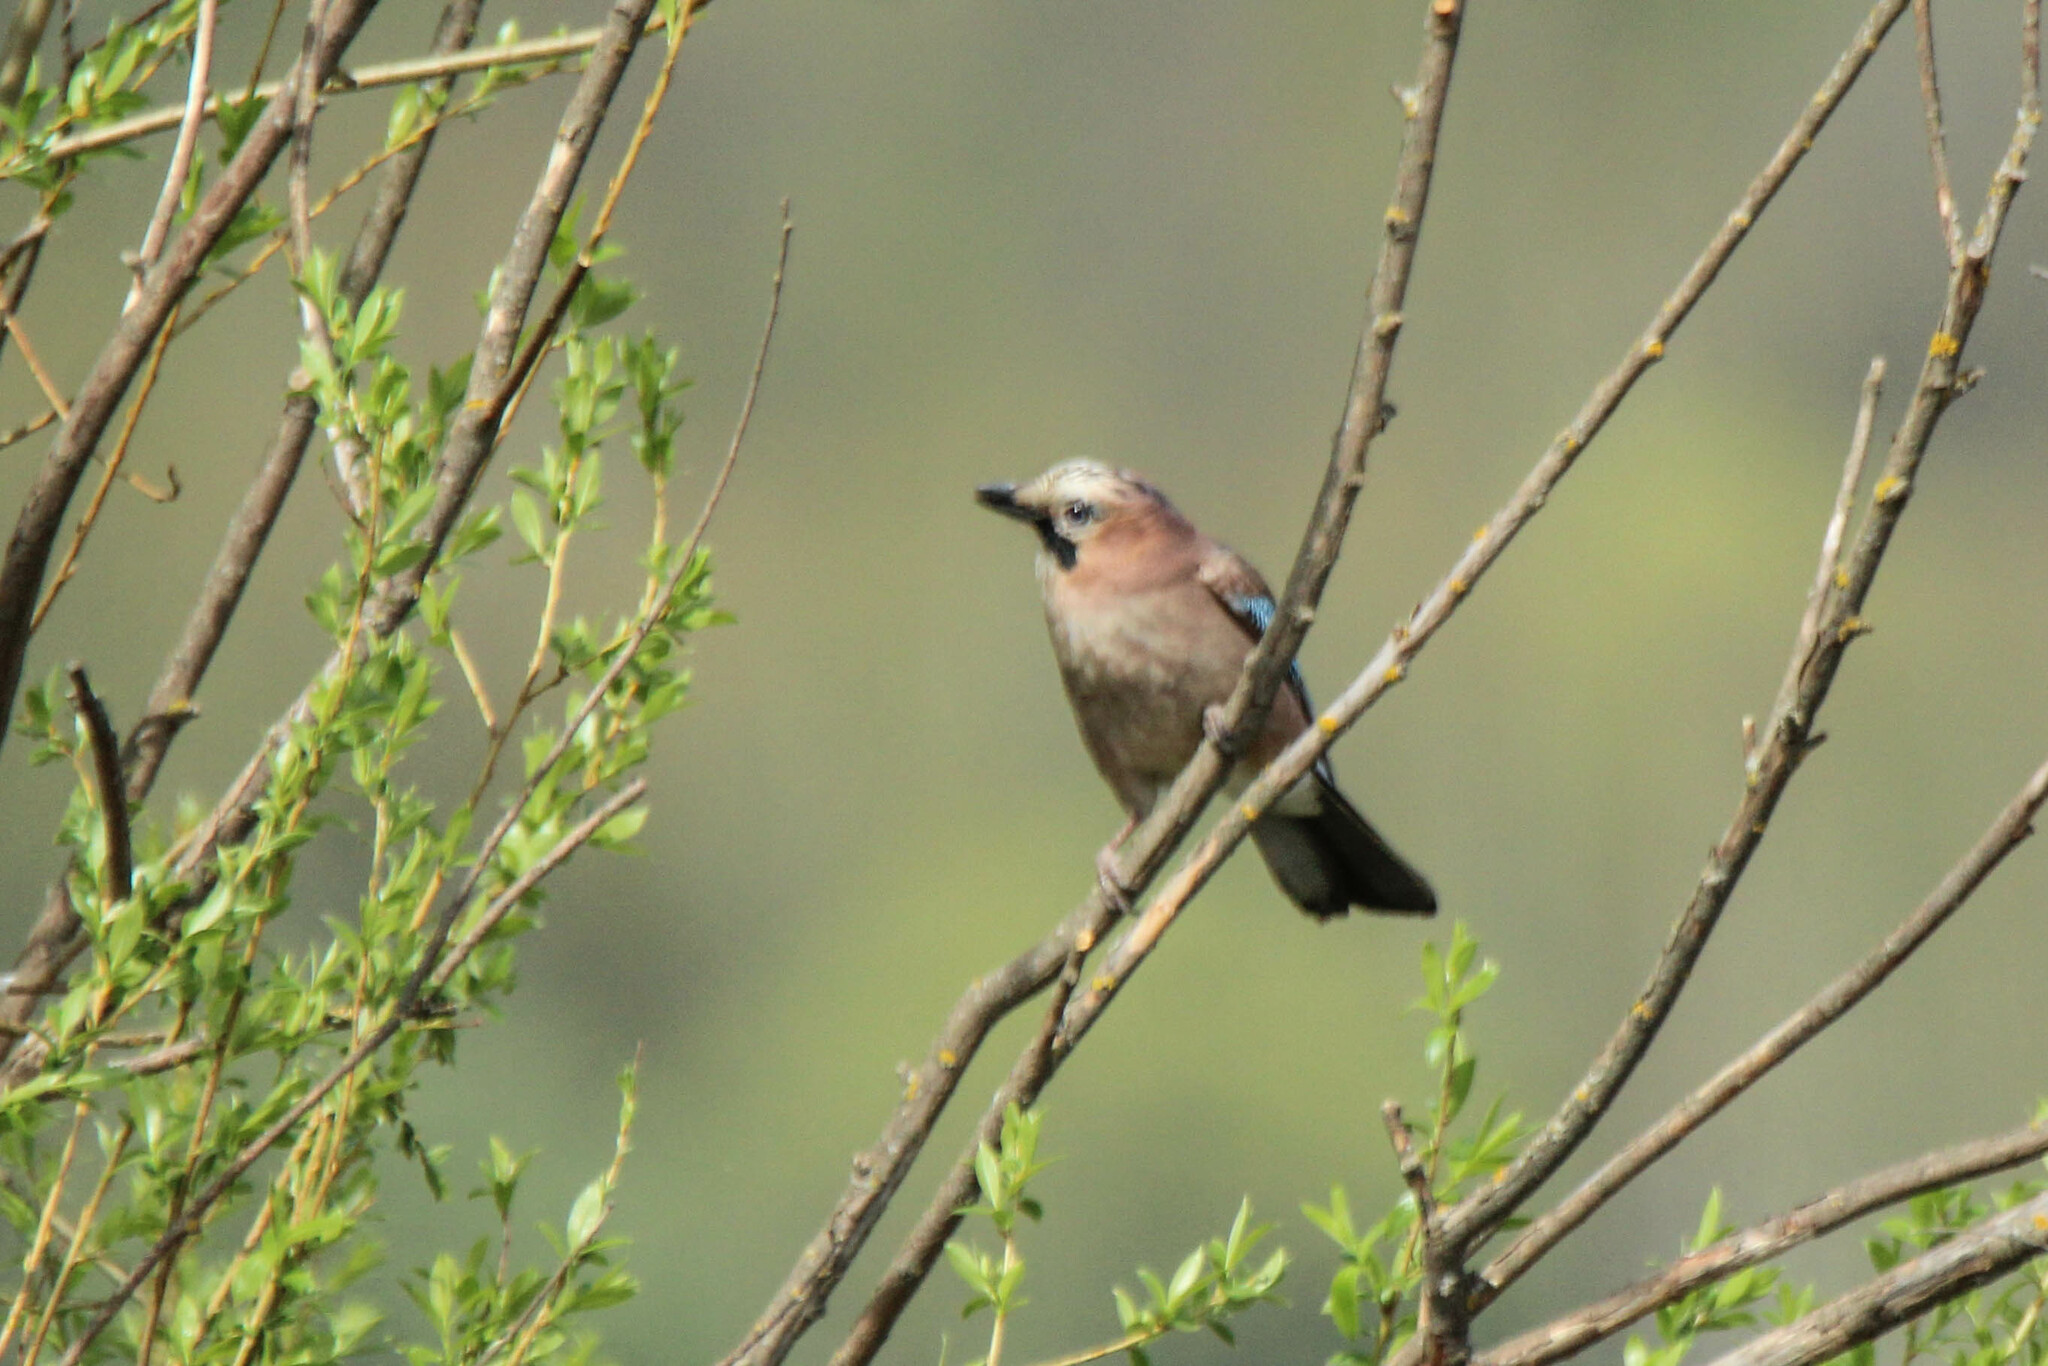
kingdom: Animalia
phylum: Chordata
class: Aves
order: Passeriformes
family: Corvidae
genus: Garrulus
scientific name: Garrulus glandarius
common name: Eurasian jay
